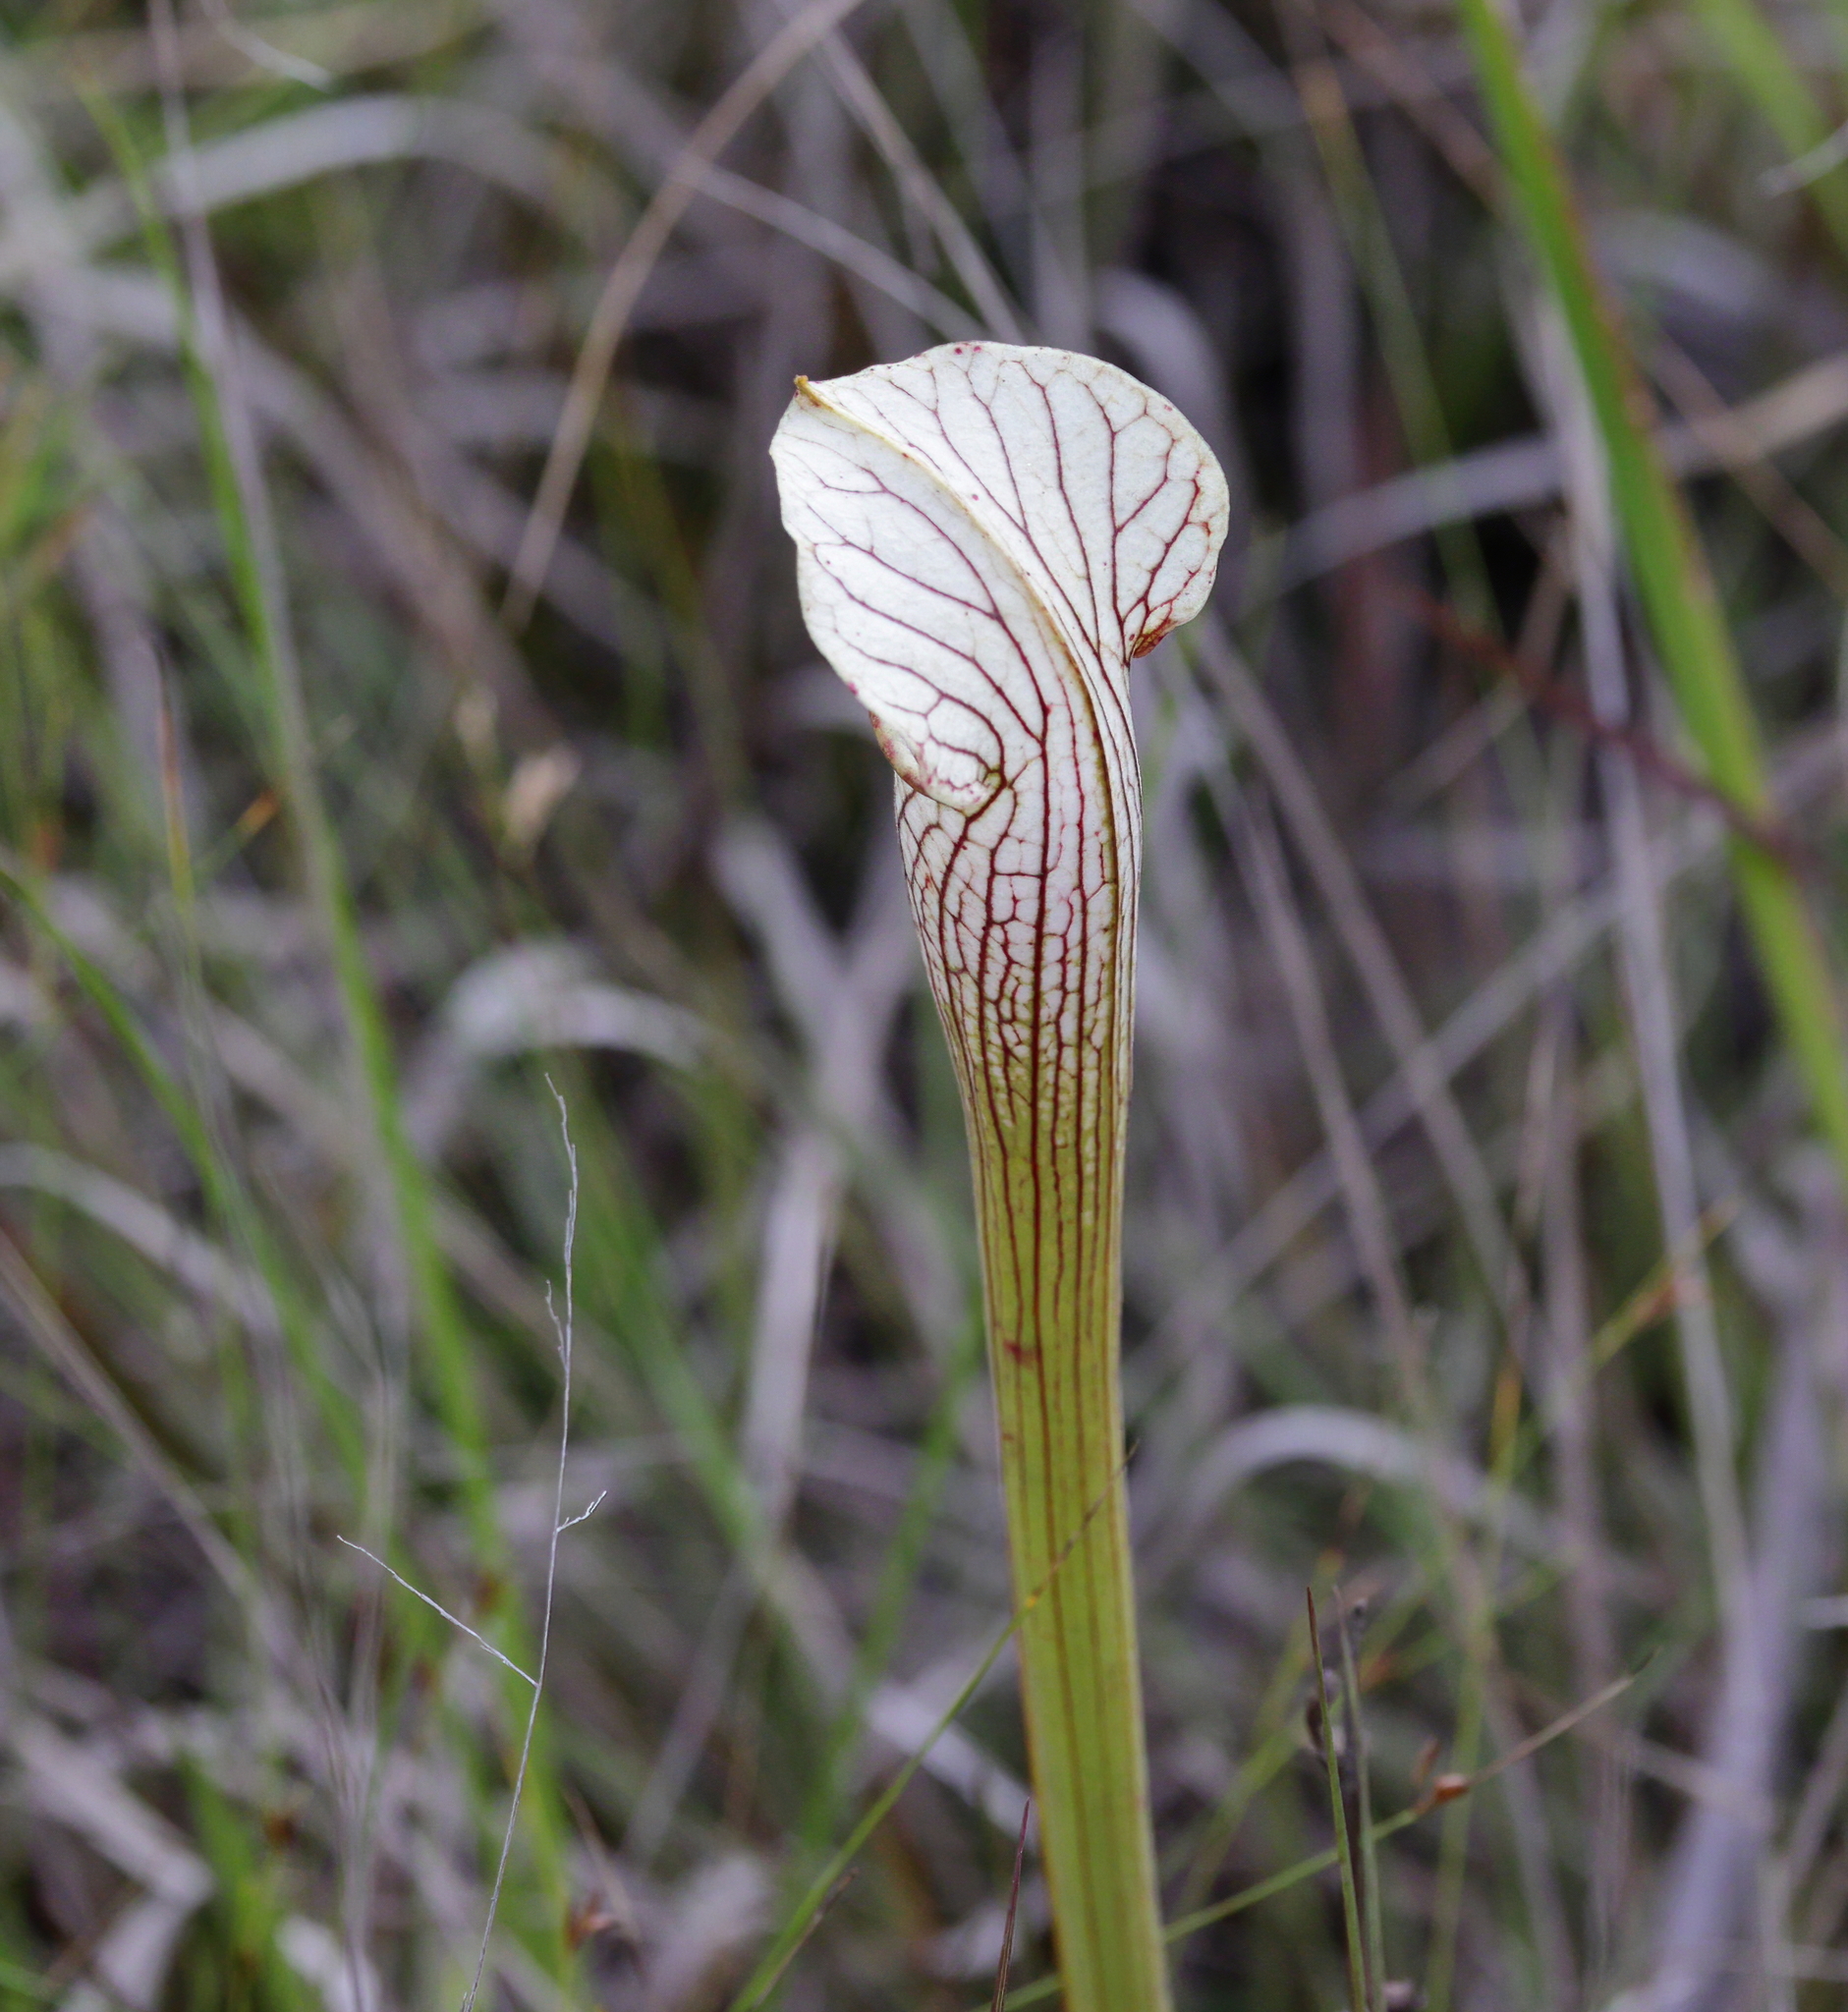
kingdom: Plantae
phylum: Tracheophyta
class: Magnoliopsida
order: Ericales
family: Sarraceniaceae
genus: Sarracenia
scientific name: Sarracenia areolata
